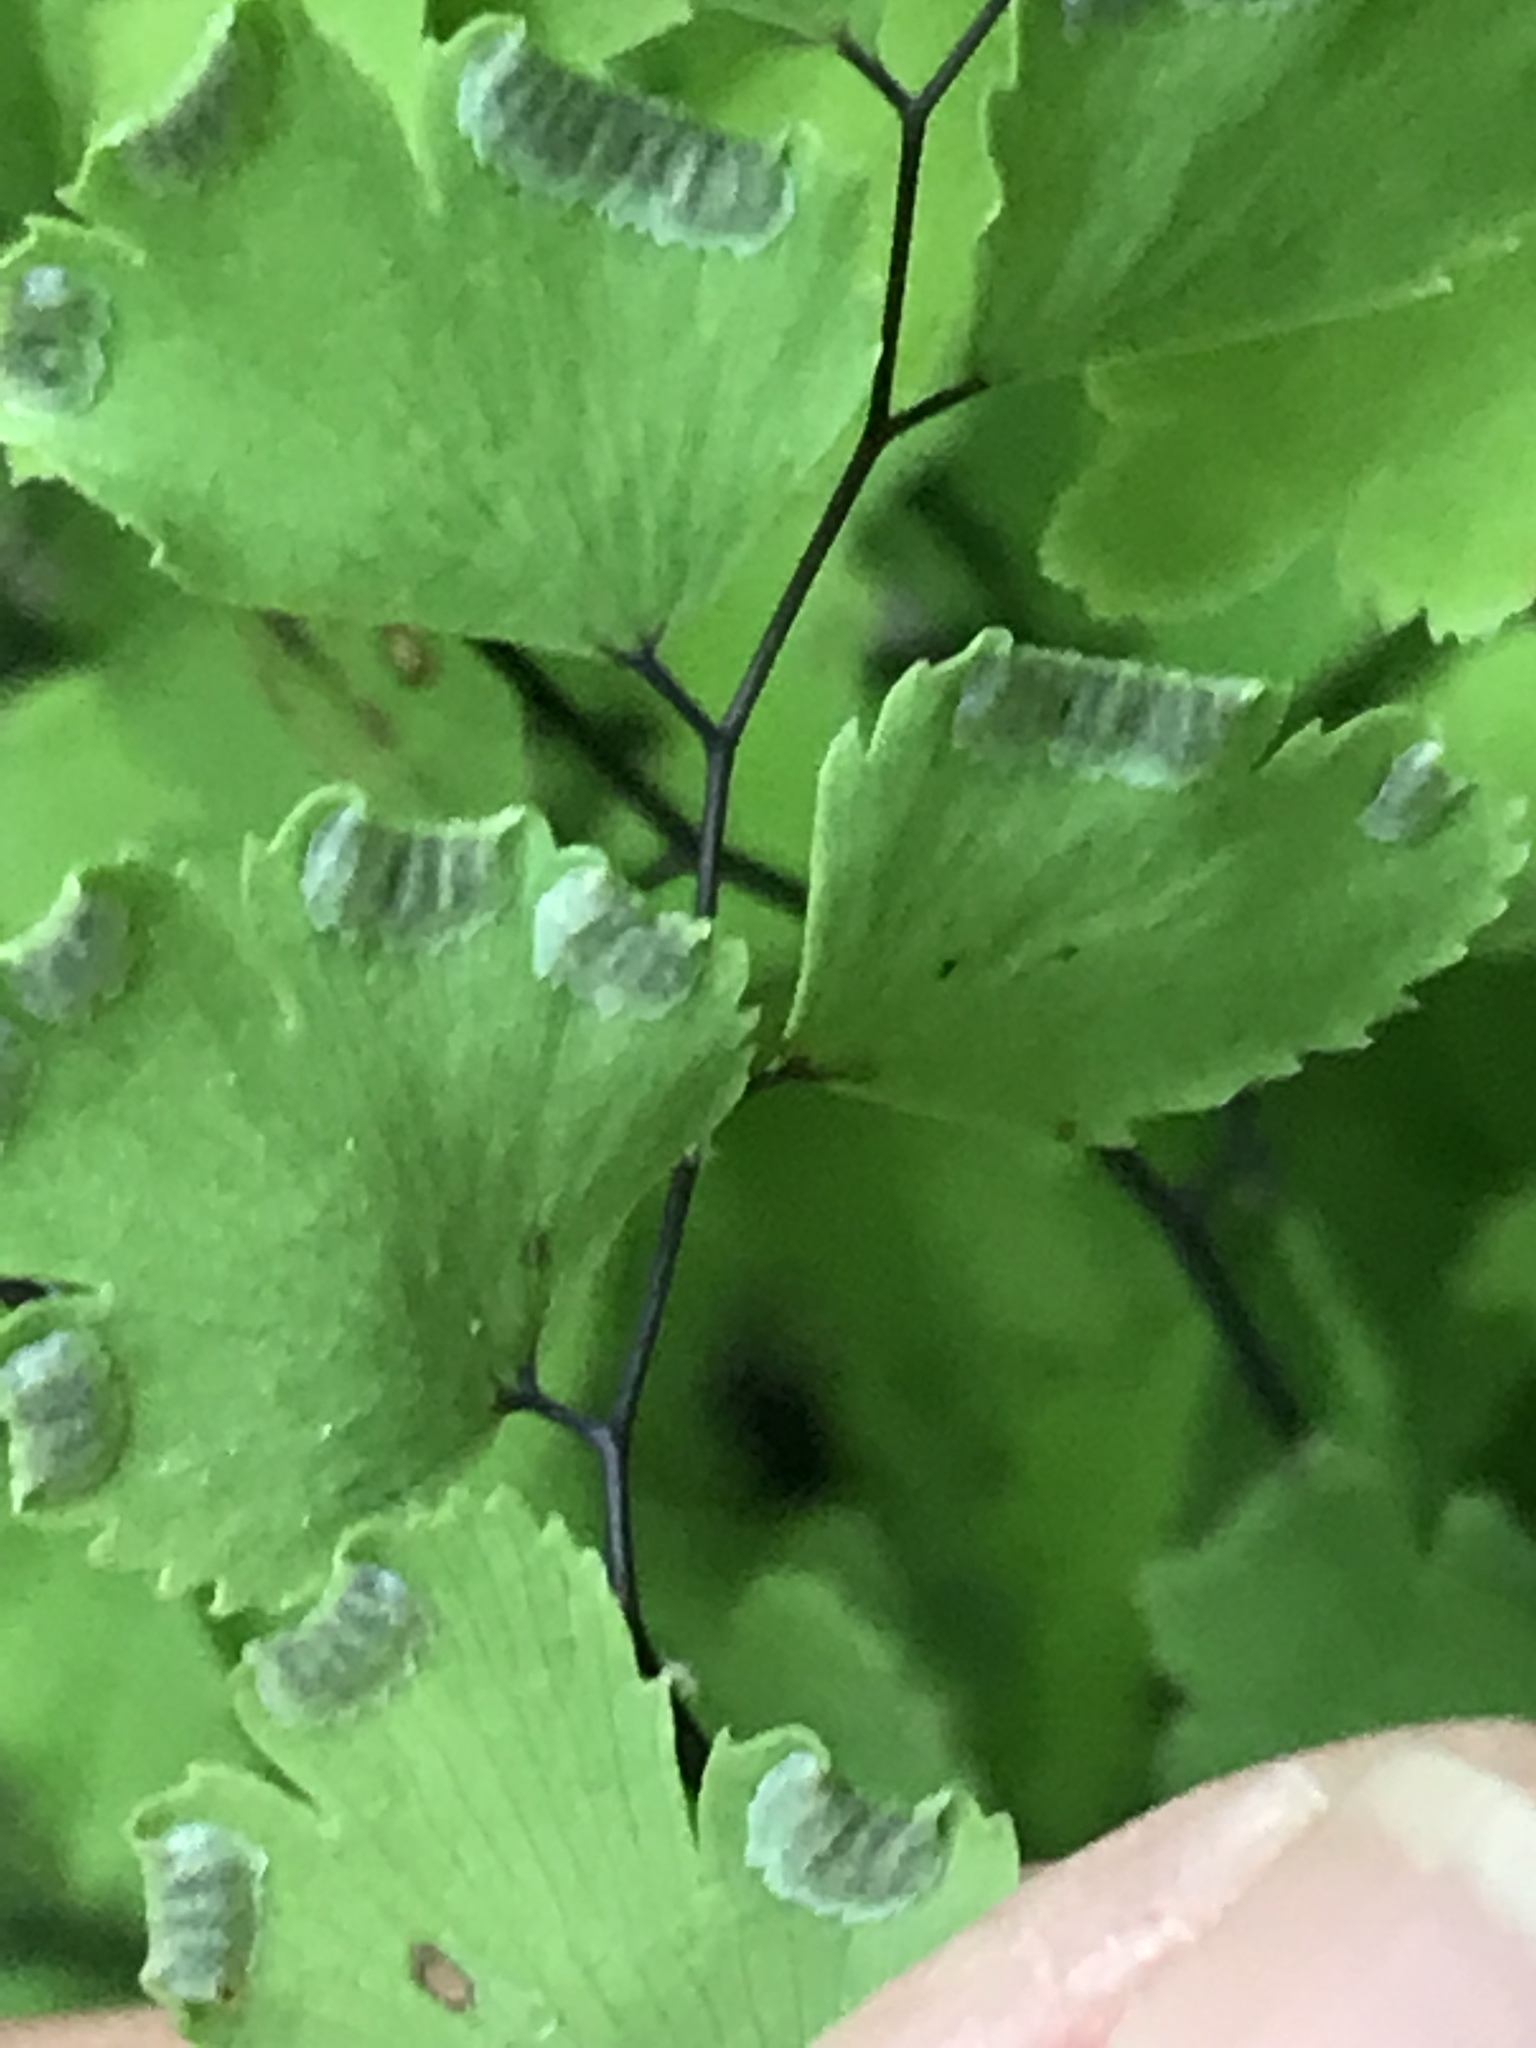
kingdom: Plantae
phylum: Tracheophyta
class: Polypodiopsida
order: Polypodiales
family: Pteridaceae
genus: Adiantum
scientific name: Adiantum capillus-veneris
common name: Maidenhair fern
